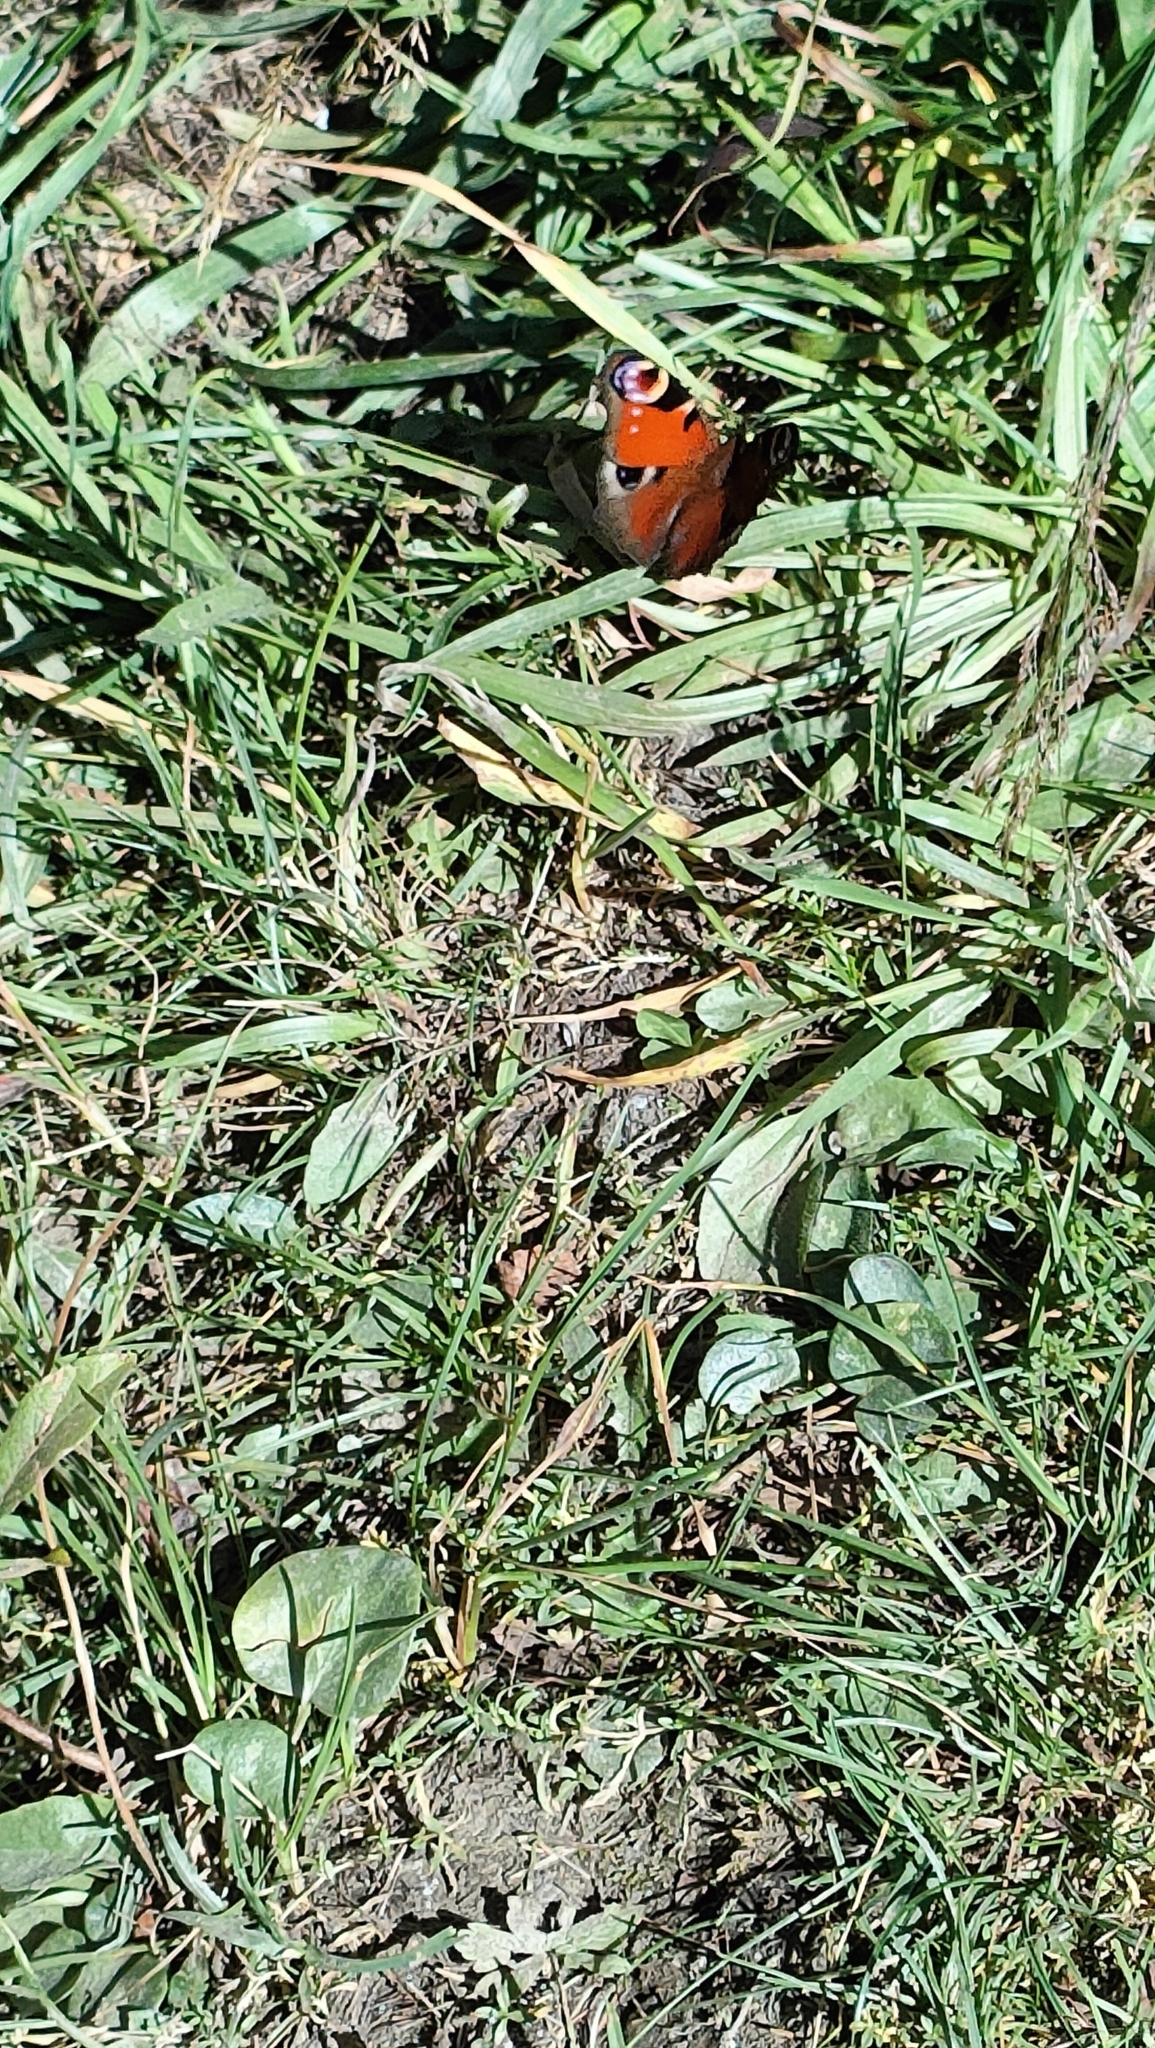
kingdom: Animalia
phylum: Arthropoda
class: Insecta
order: Lepidoptera
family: Nymphalidae
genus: Aglais
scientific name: Aglais io
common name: Peacock
